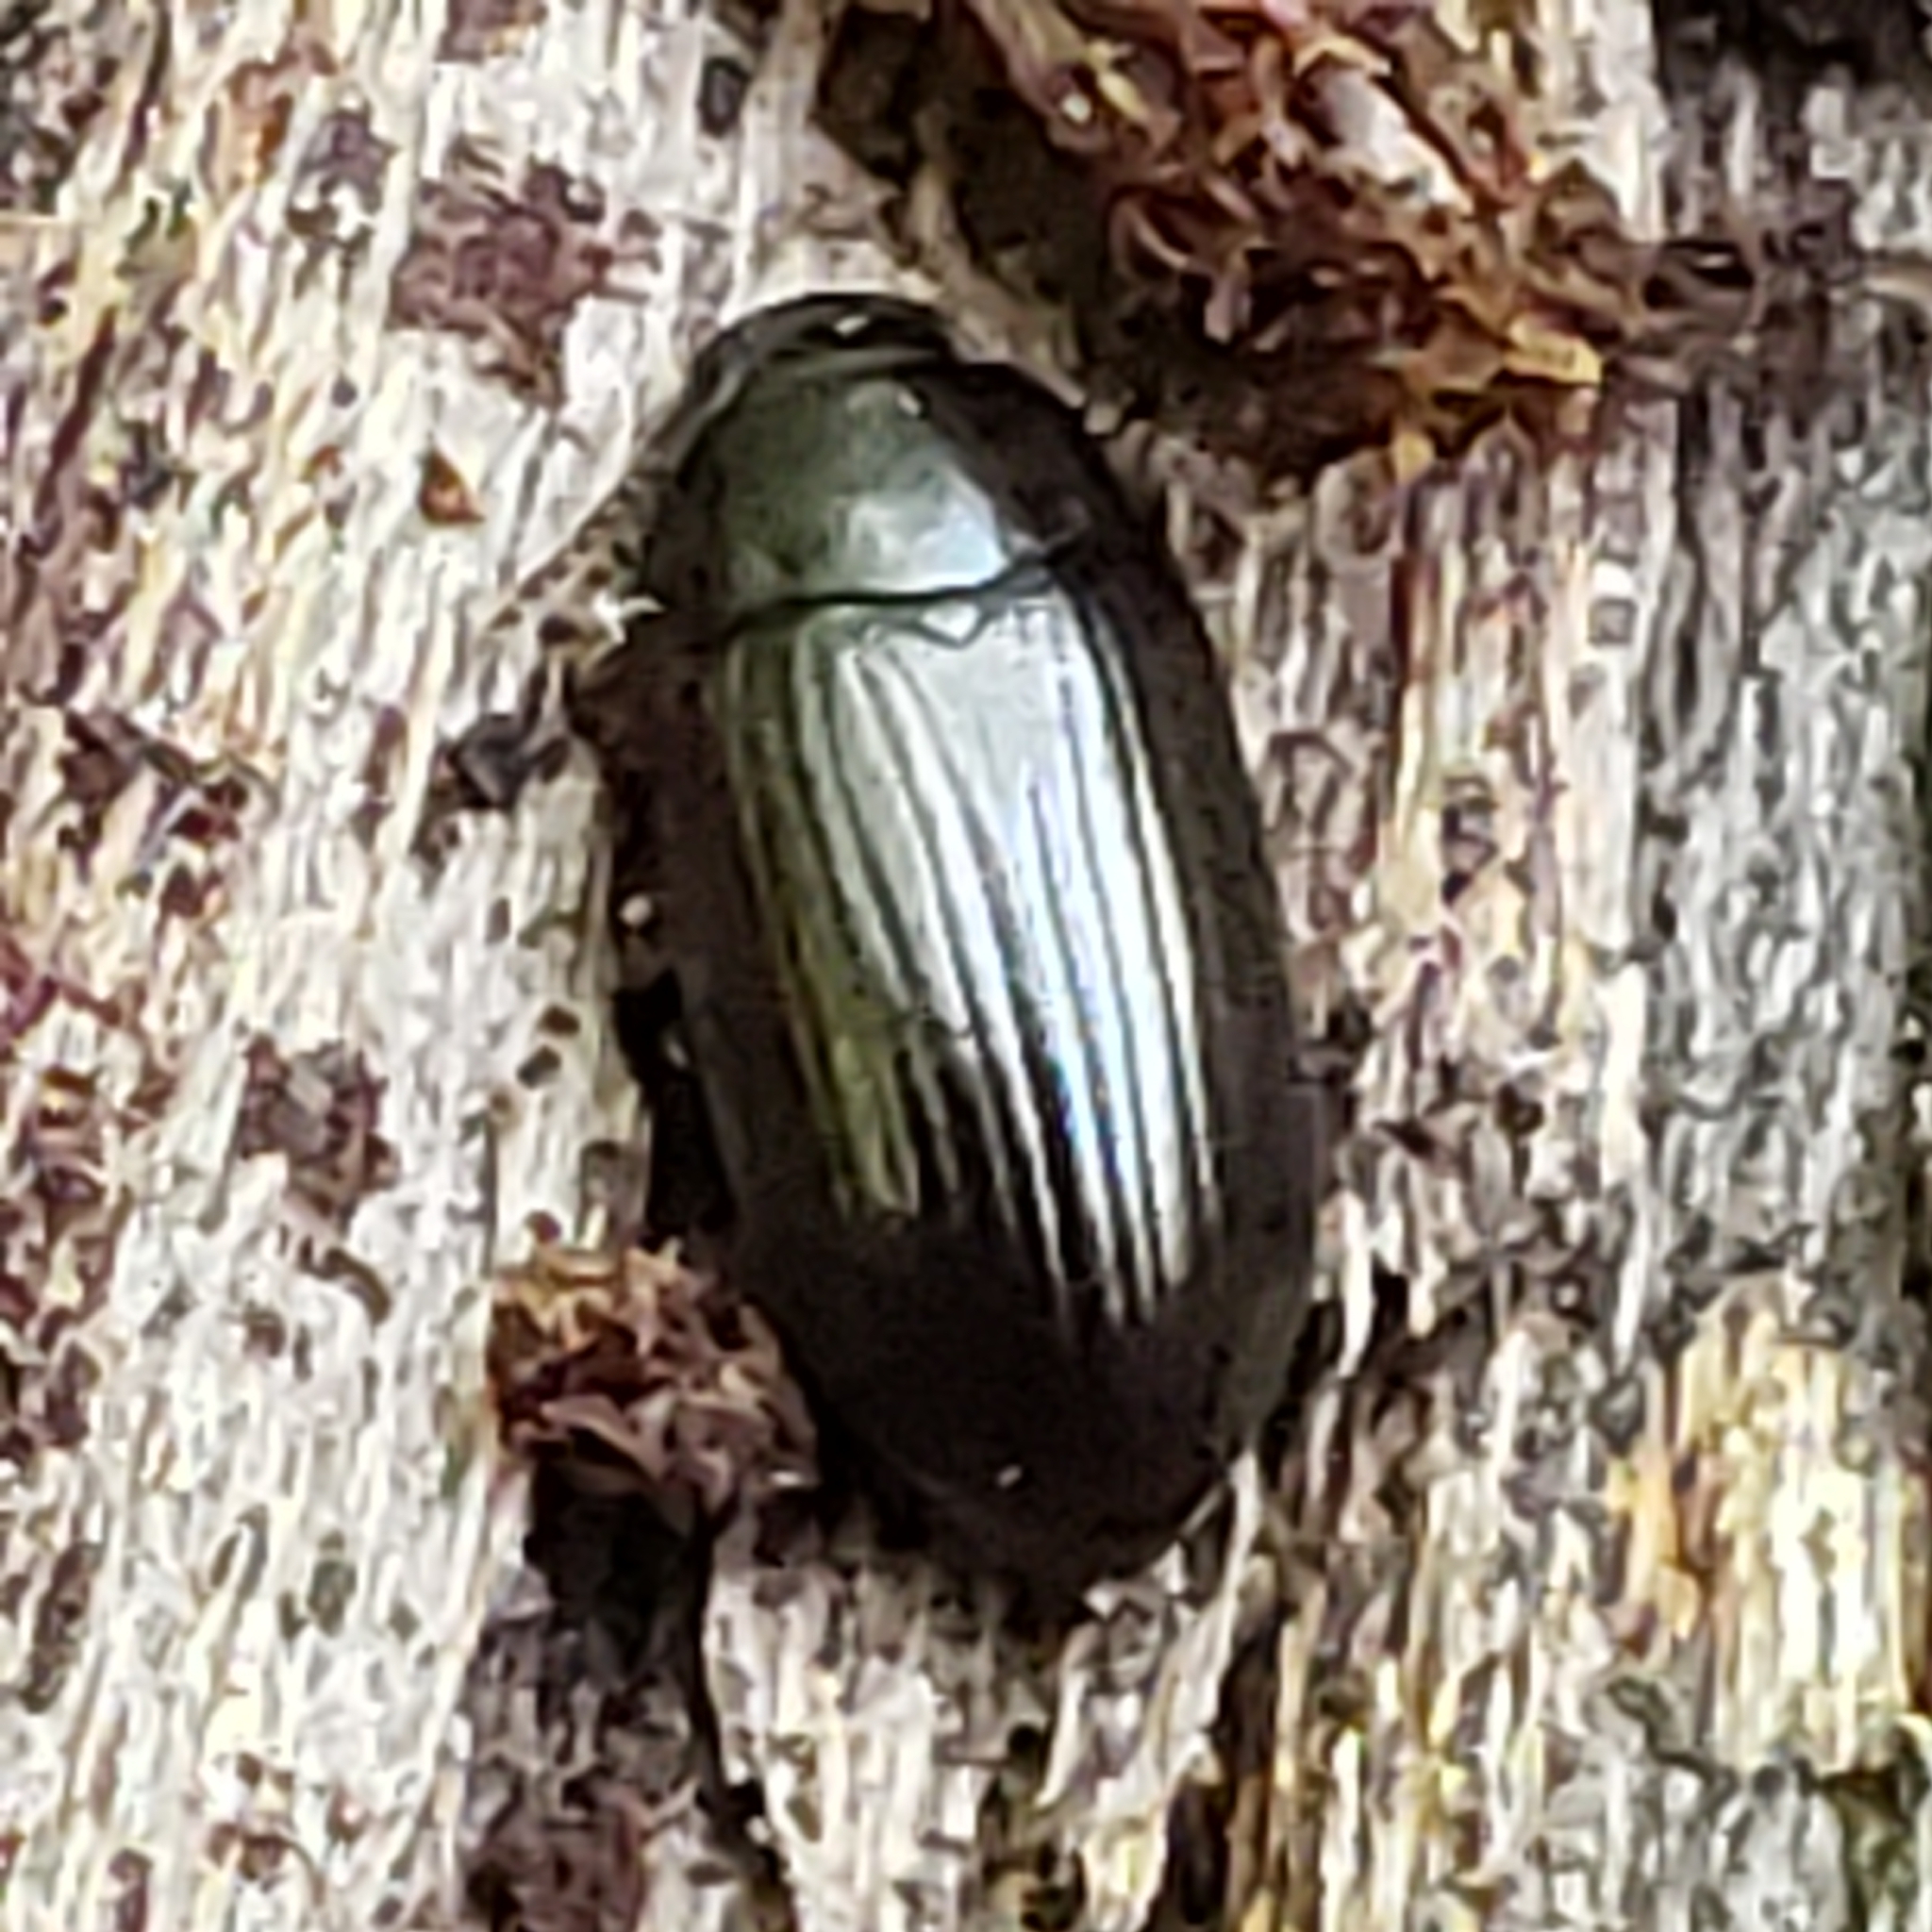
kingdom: Animalia
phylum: Arthropoda
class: Insecta
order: Coleoptera
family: Tenebrionidae
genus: Platydema
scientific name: Platydema americana
